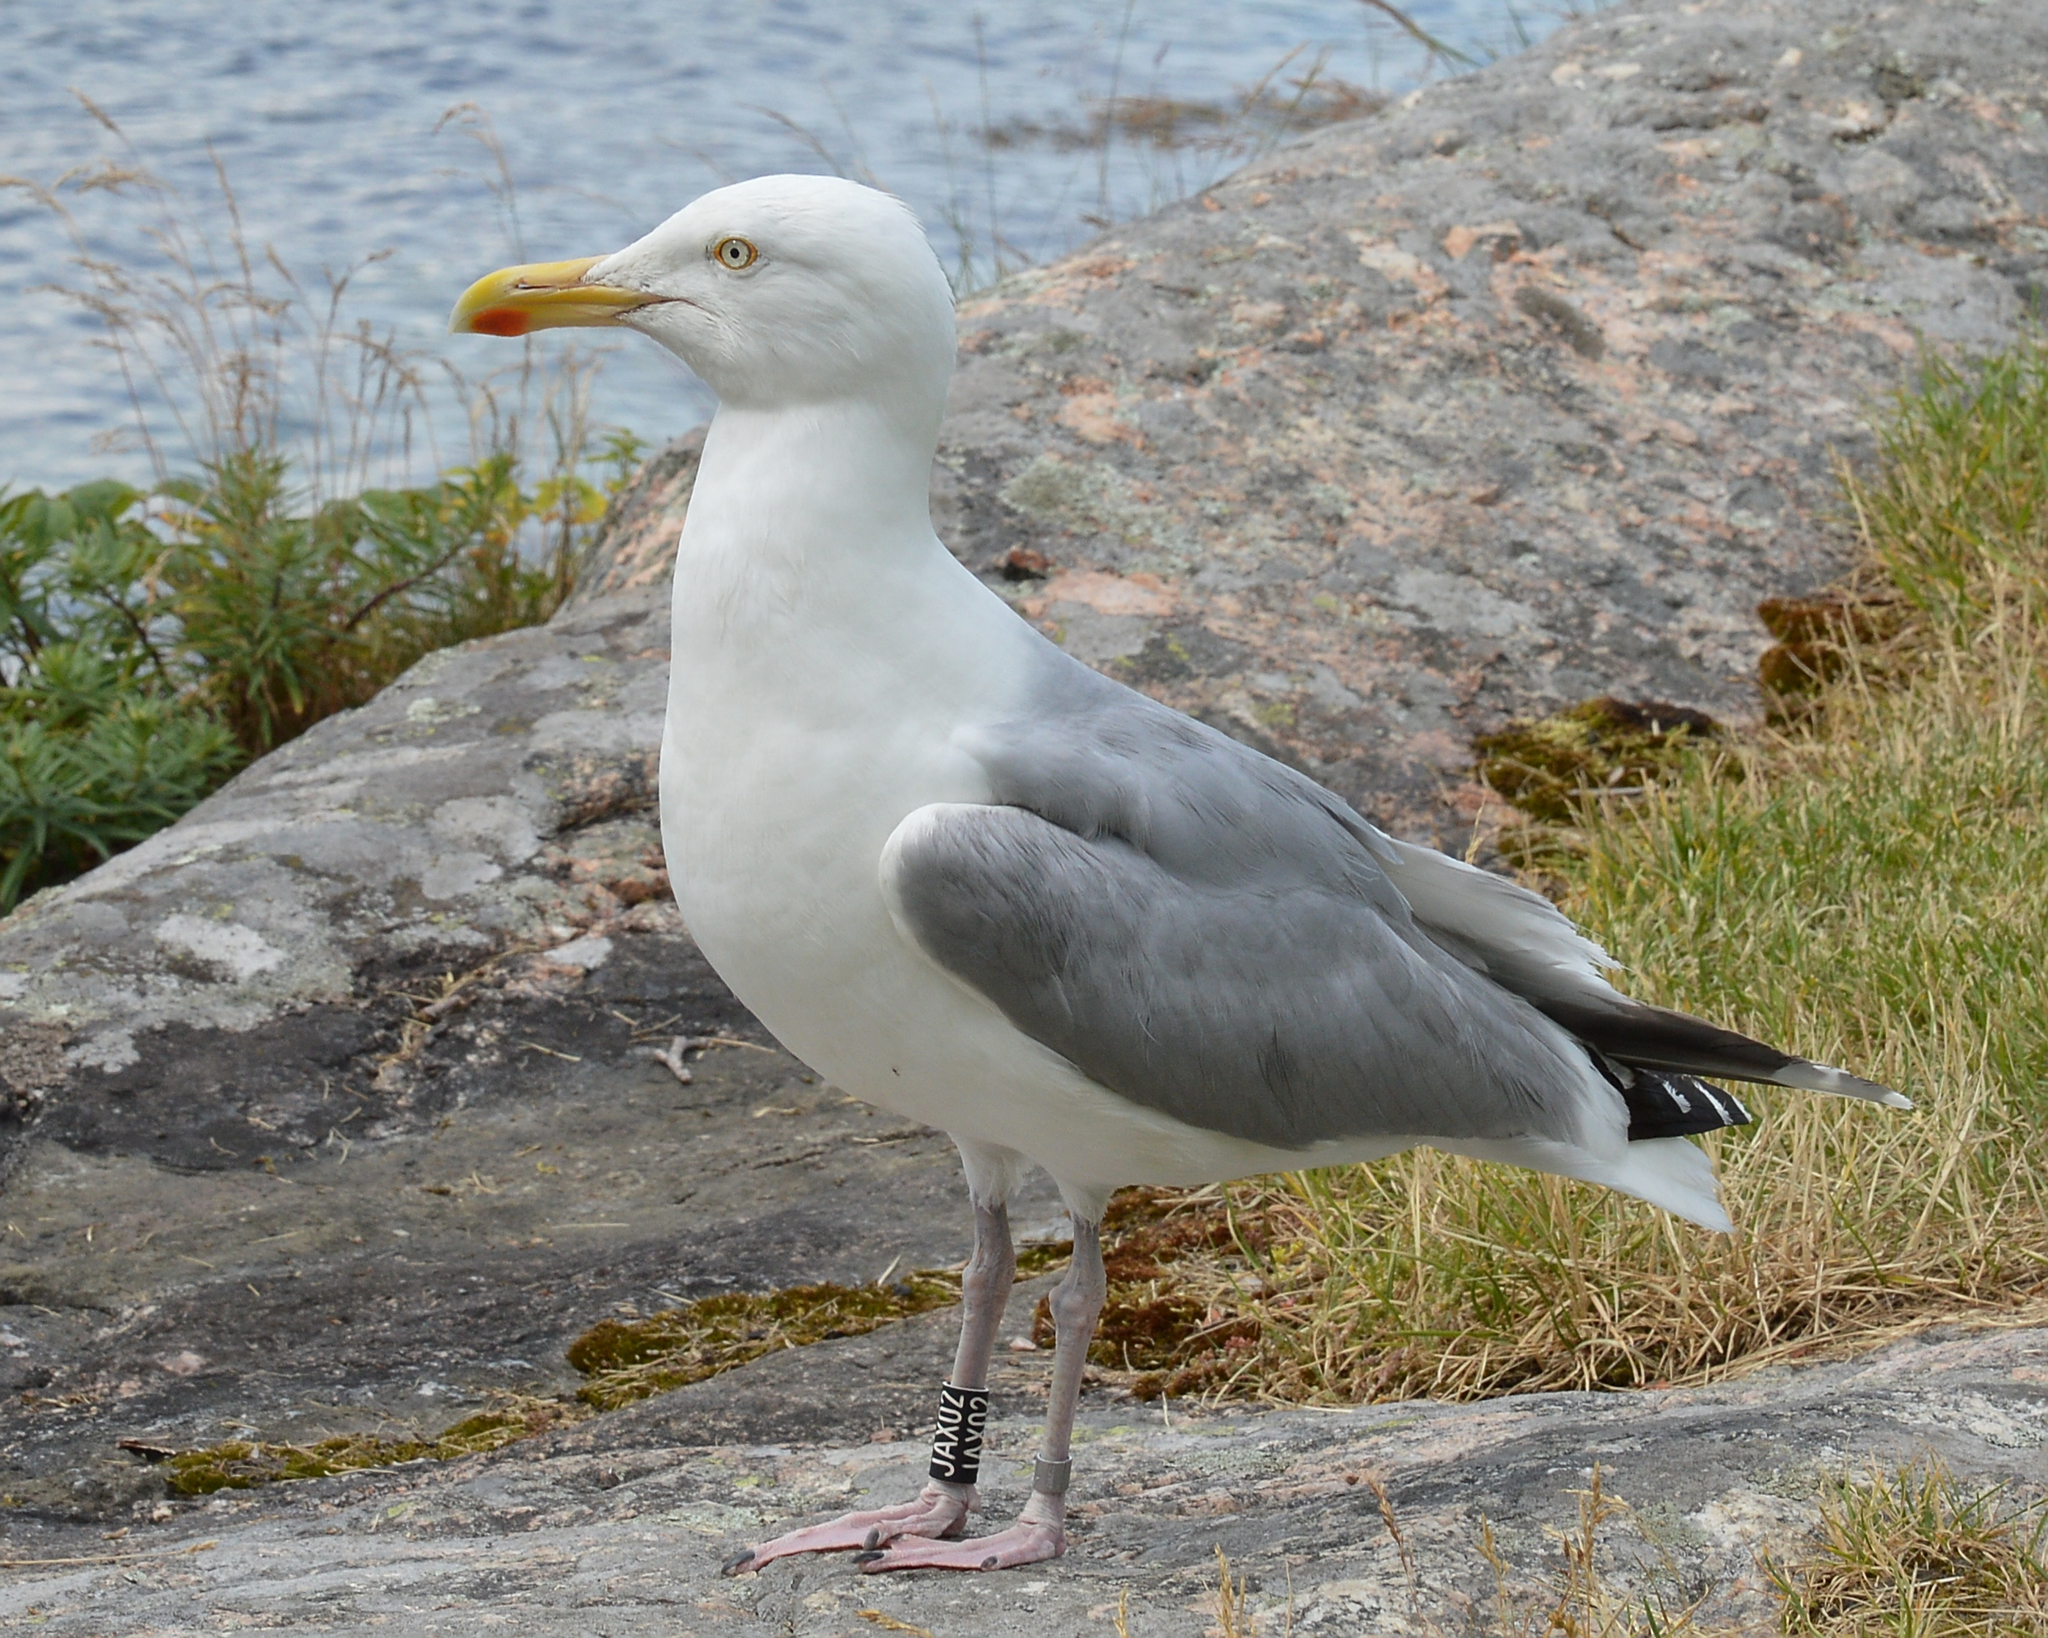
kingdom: Animalia
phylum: Chordata
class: Aves
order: Charadriiformes
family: Laridae
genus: Larus
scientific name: Larus argentatus
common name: Herring gull
